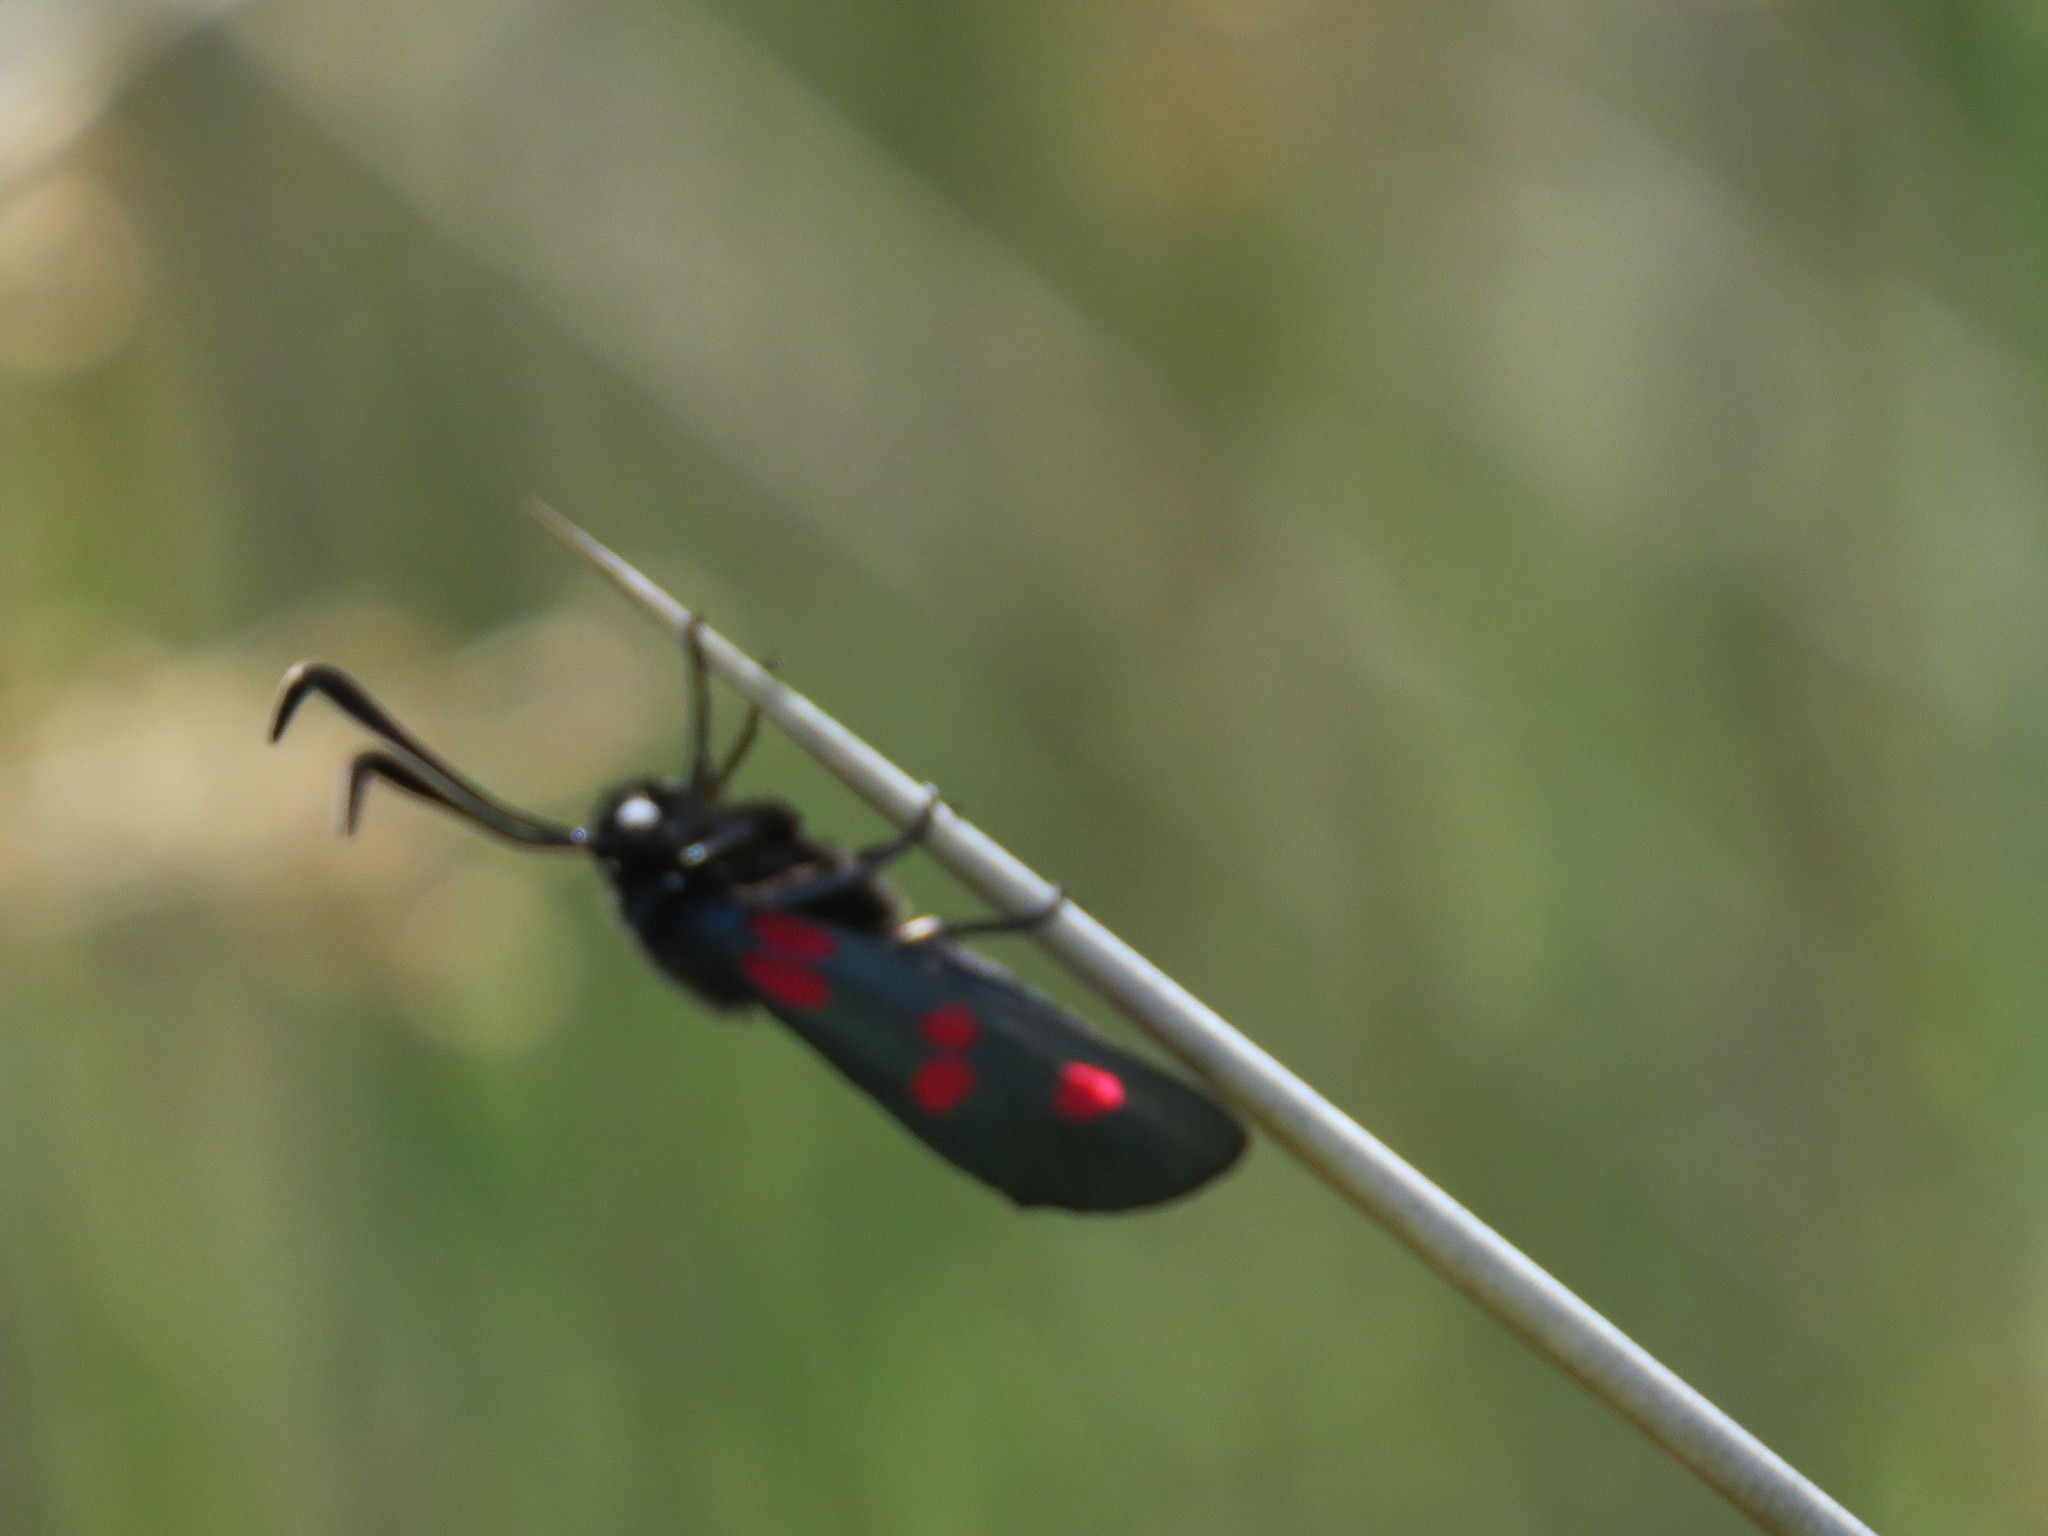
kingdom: Animalia
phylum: Arthropoda
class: Insecta
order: Lepidoptera
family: Zygaenidae
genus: Zygaena
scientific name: Zygaena trifolii
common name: Five-spot burnet
